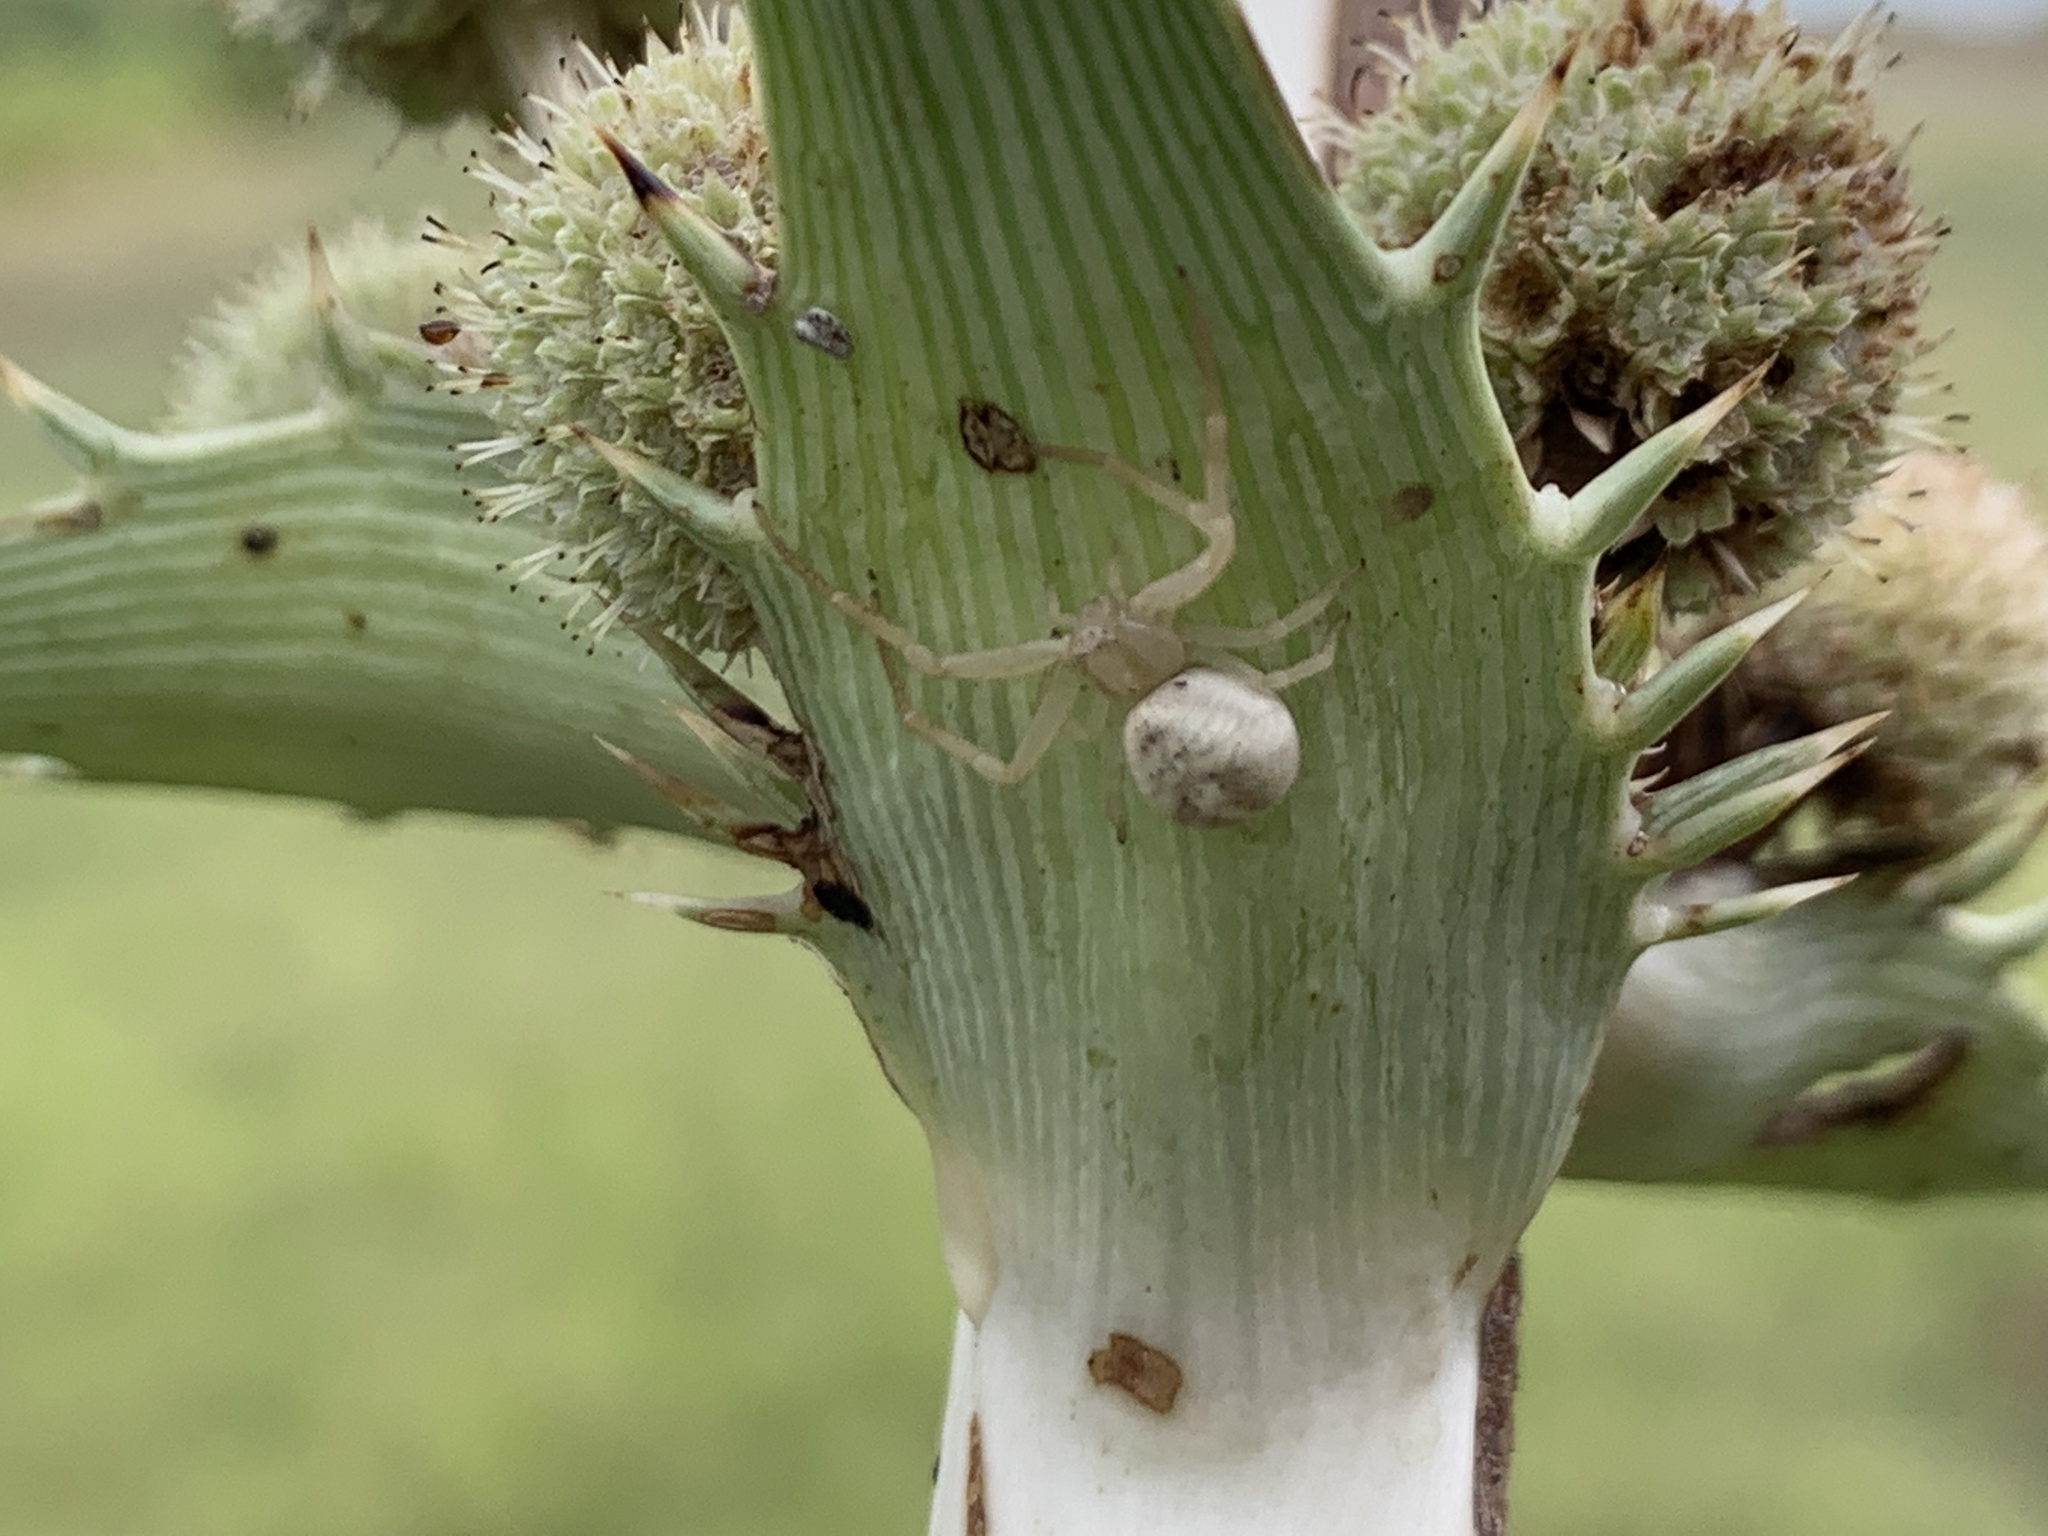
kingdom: Animalia
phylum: Arthropoda
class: Arachnida
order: Araneae
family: Thomisidae
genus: Misumenops
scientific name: Misumenops
